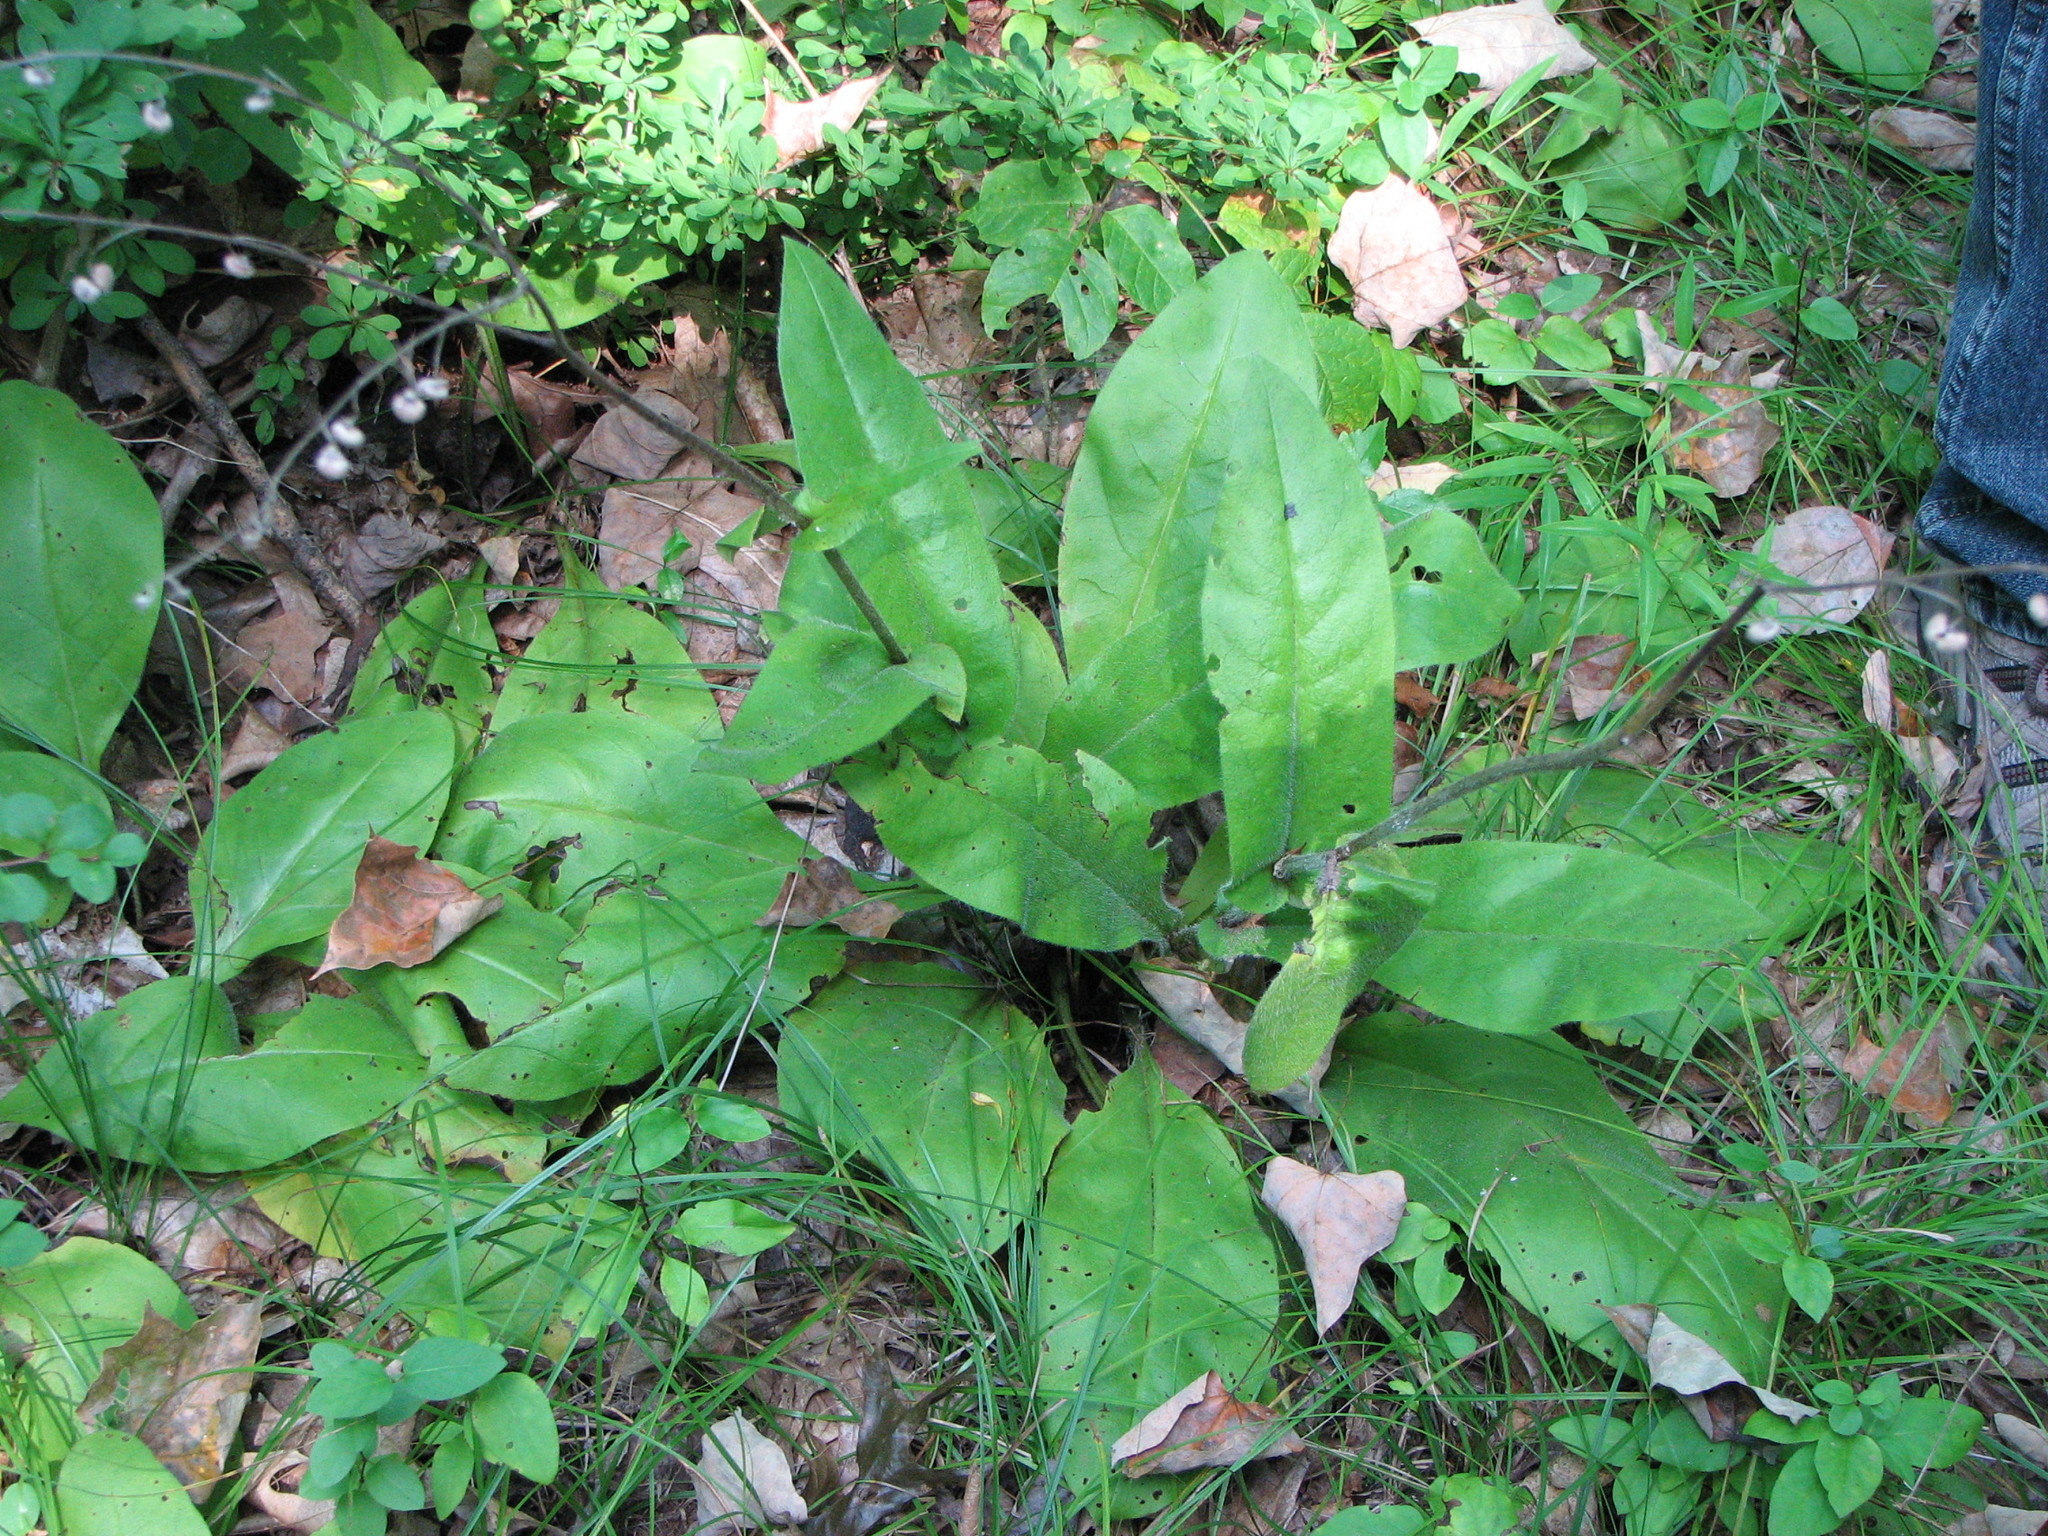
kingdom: Plantae
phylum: Tracheophyta
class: Magnoliopsida
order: Boraginales
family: Boraginaceae
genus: Andersonglossum
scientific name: Andersonglossum virginianum
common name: Wild comfrey
